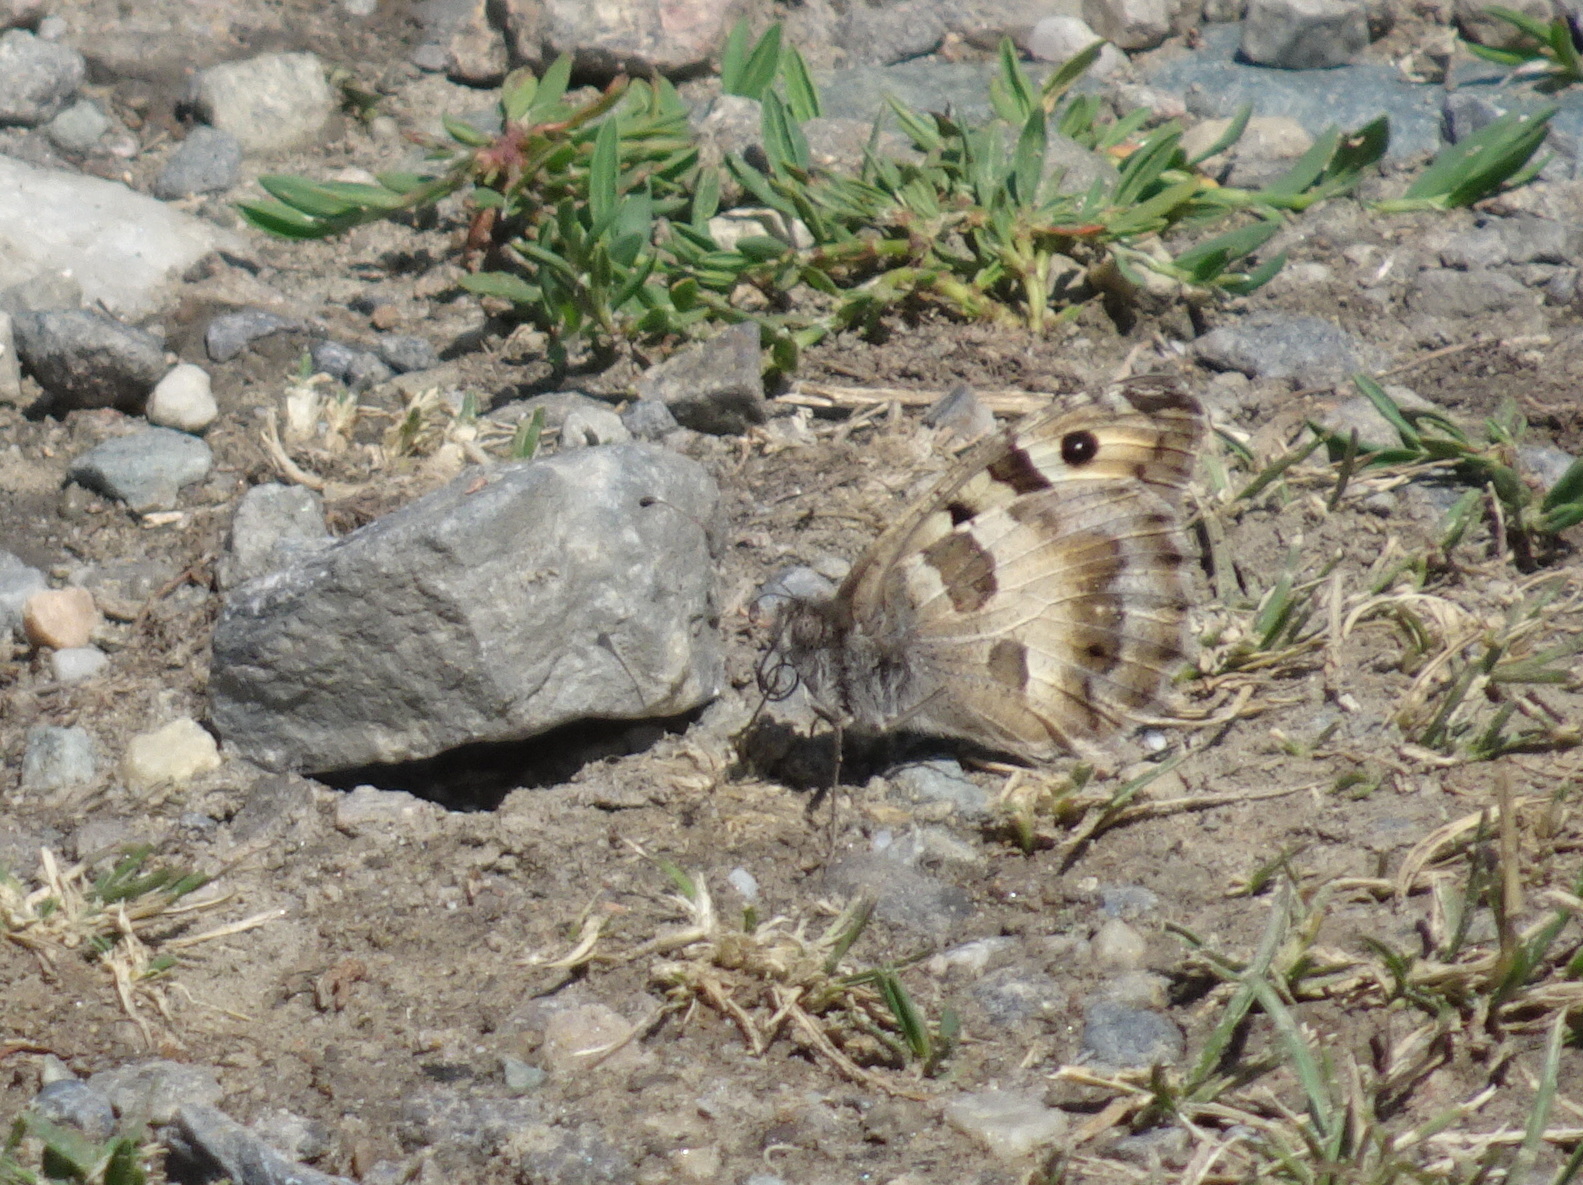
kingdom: Animalia
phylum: Arthropoda
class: Insecta
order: Lepidoptera
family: Nymphalidae
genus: Satyrus
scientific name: Satyrus briseis
